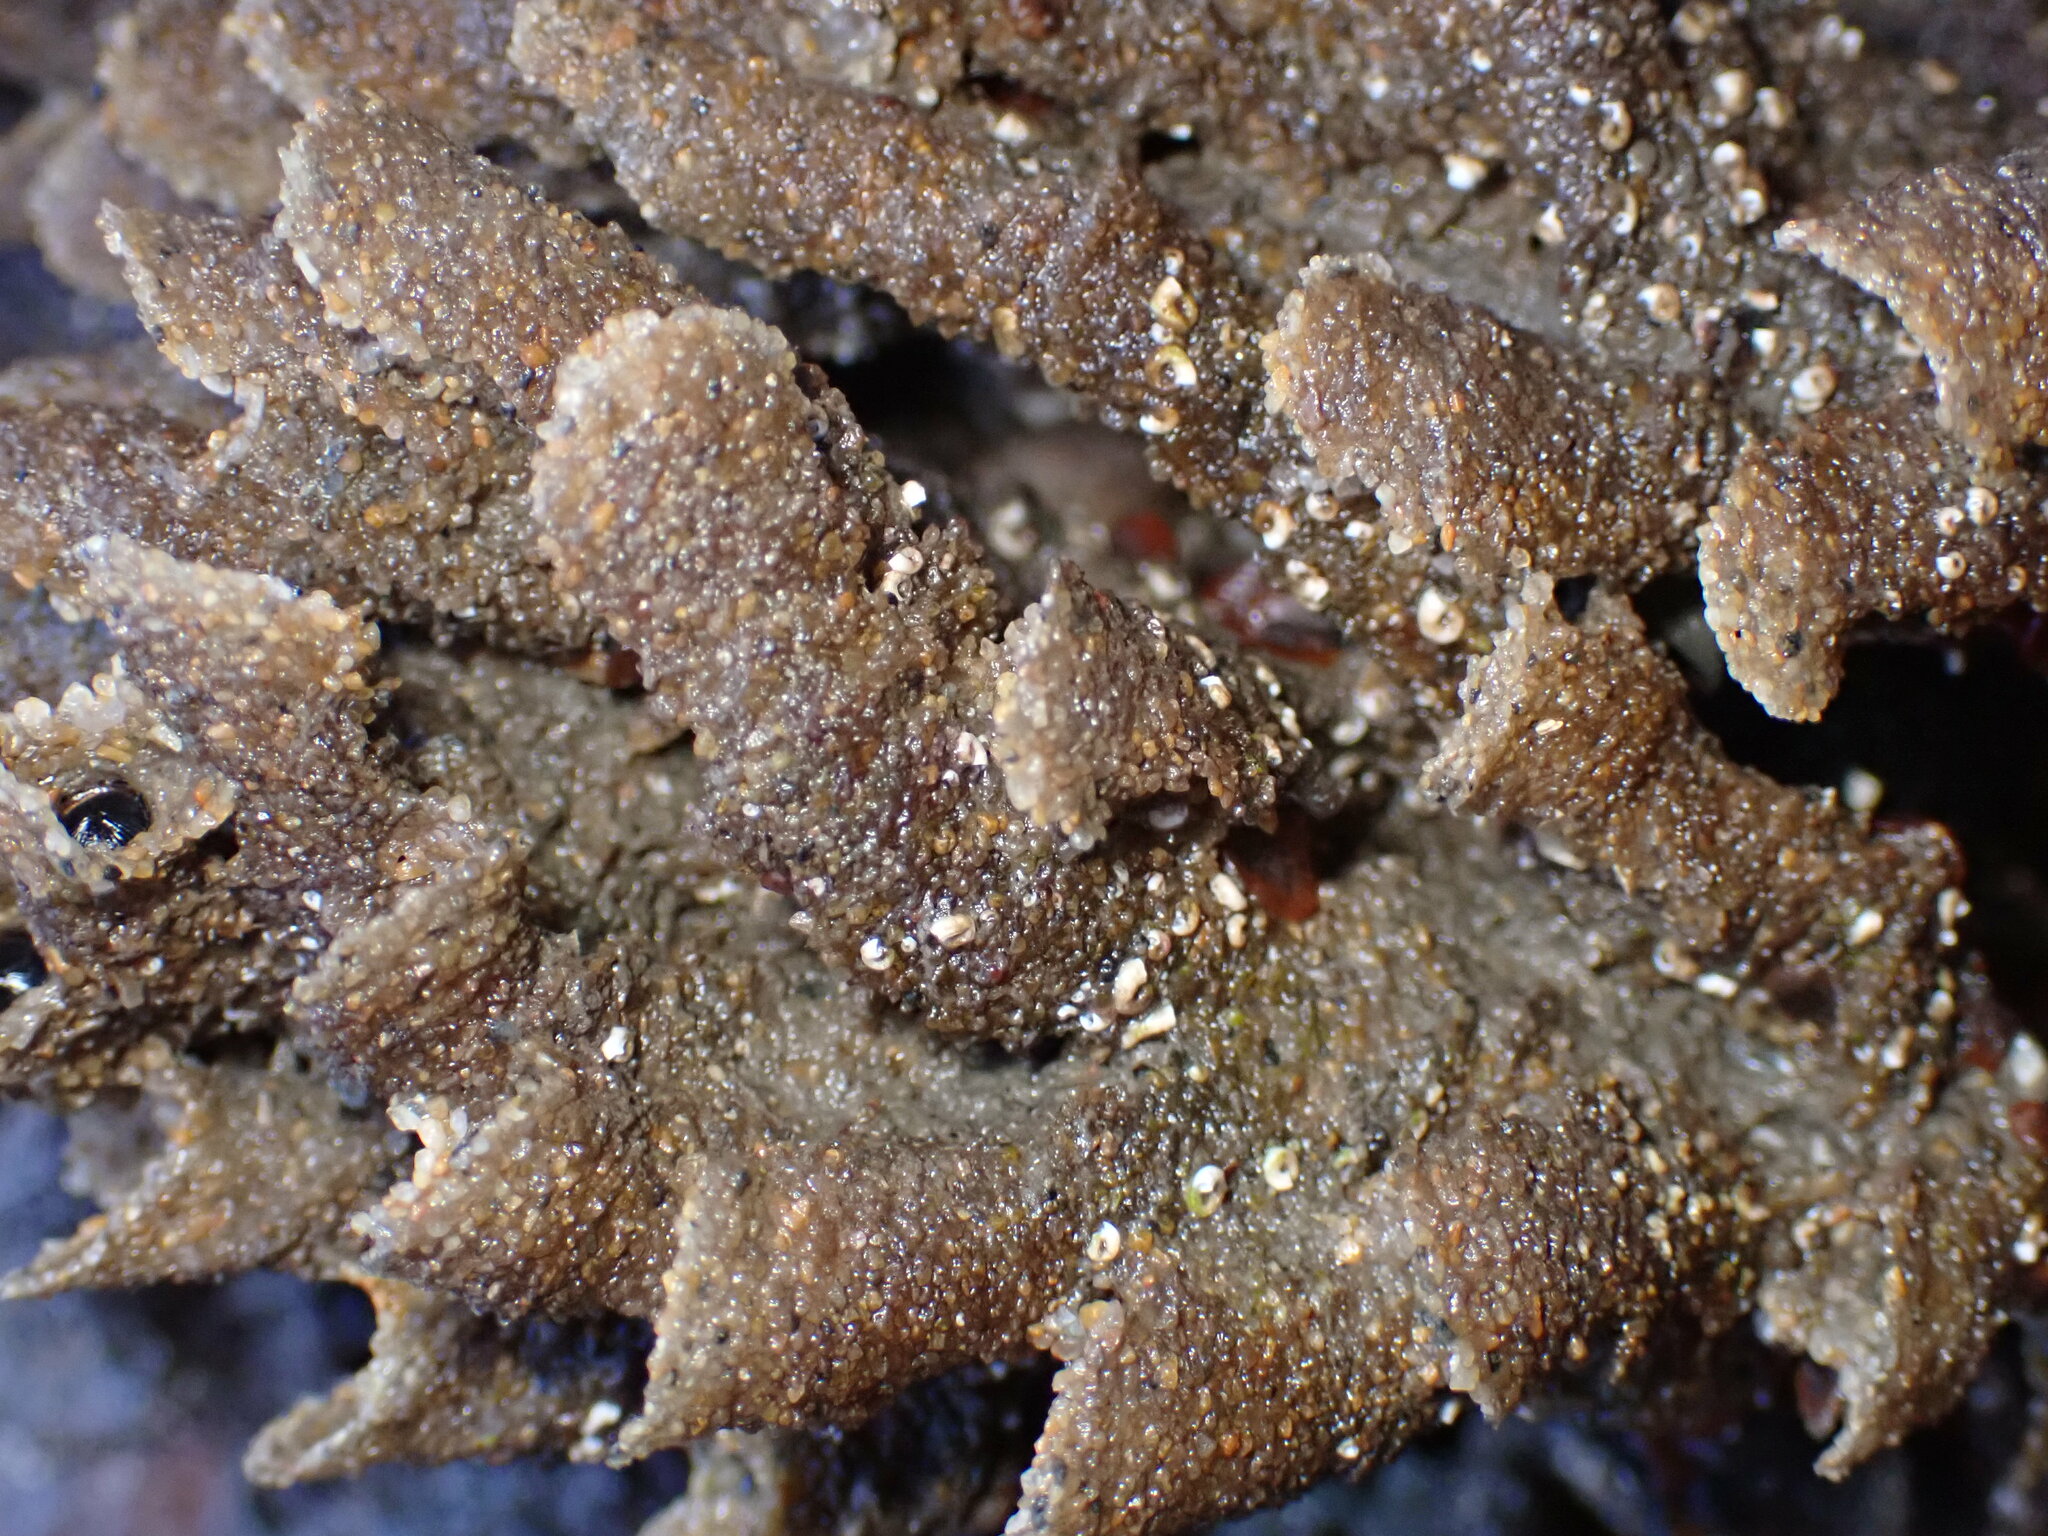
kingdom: Animalia
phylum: Annelida
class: Polychaeta
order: Sabellida
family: Sabellariidae
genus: Phragmatopoma
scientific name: Phragmatopoma californica
